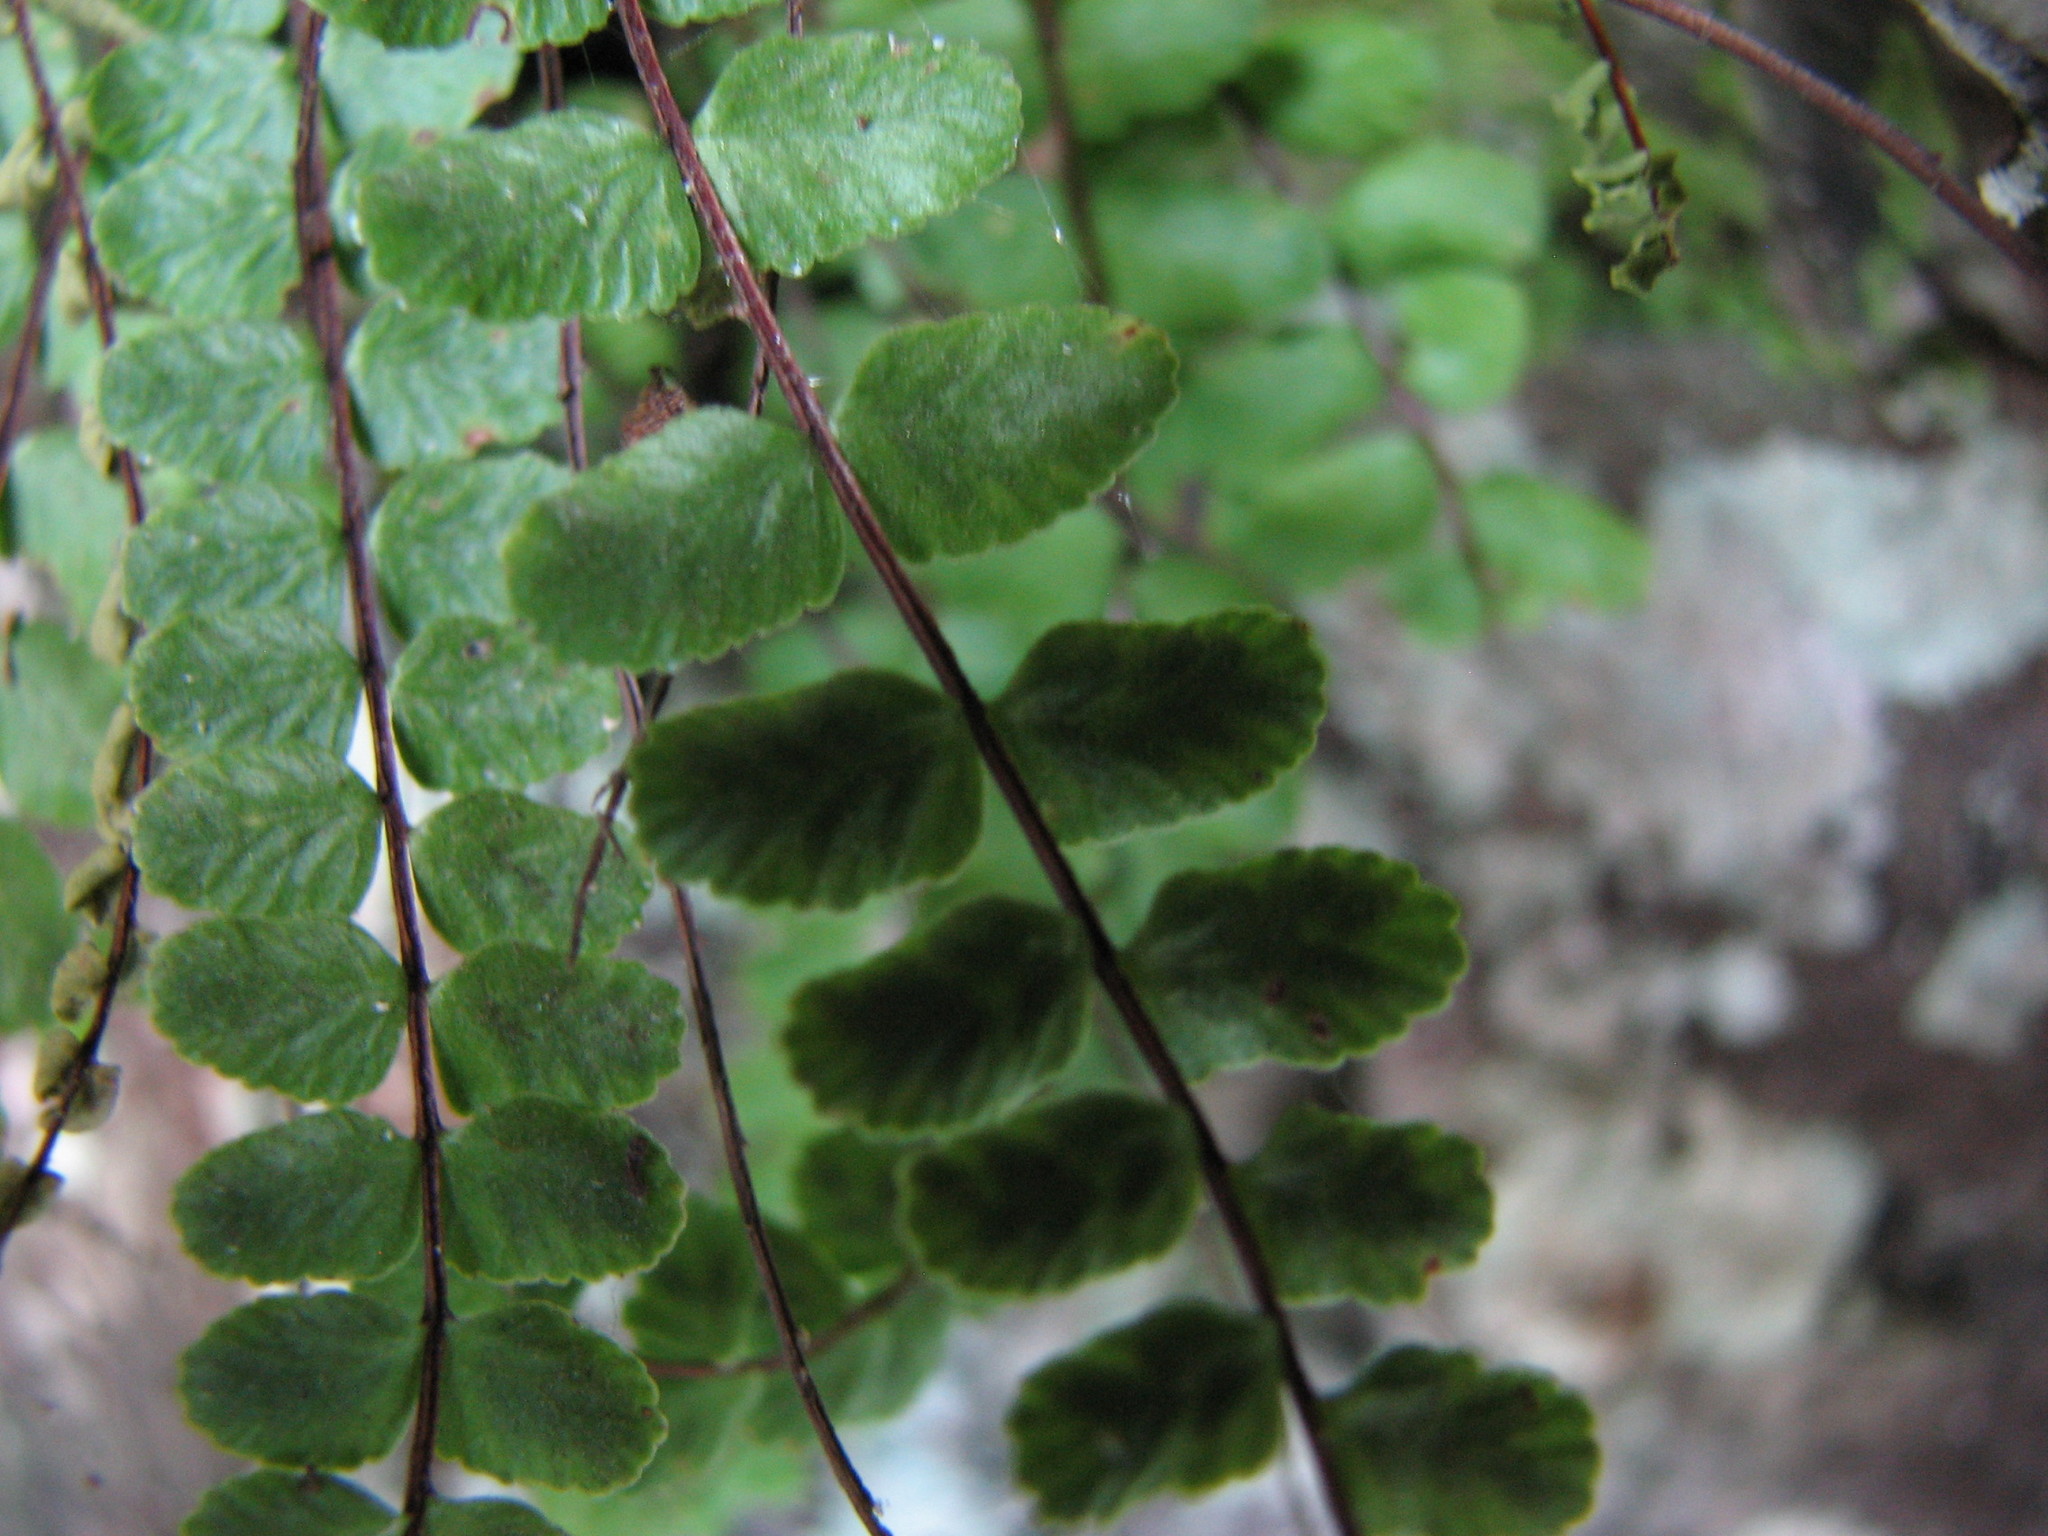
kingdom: Plantae
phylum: Tracheophyta
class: Polypodiopsida
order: Polypodiales
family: Aspleniaceae
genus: Asplenium
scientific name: Asplenium trichomanes
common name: Maidenhair spleenwort
